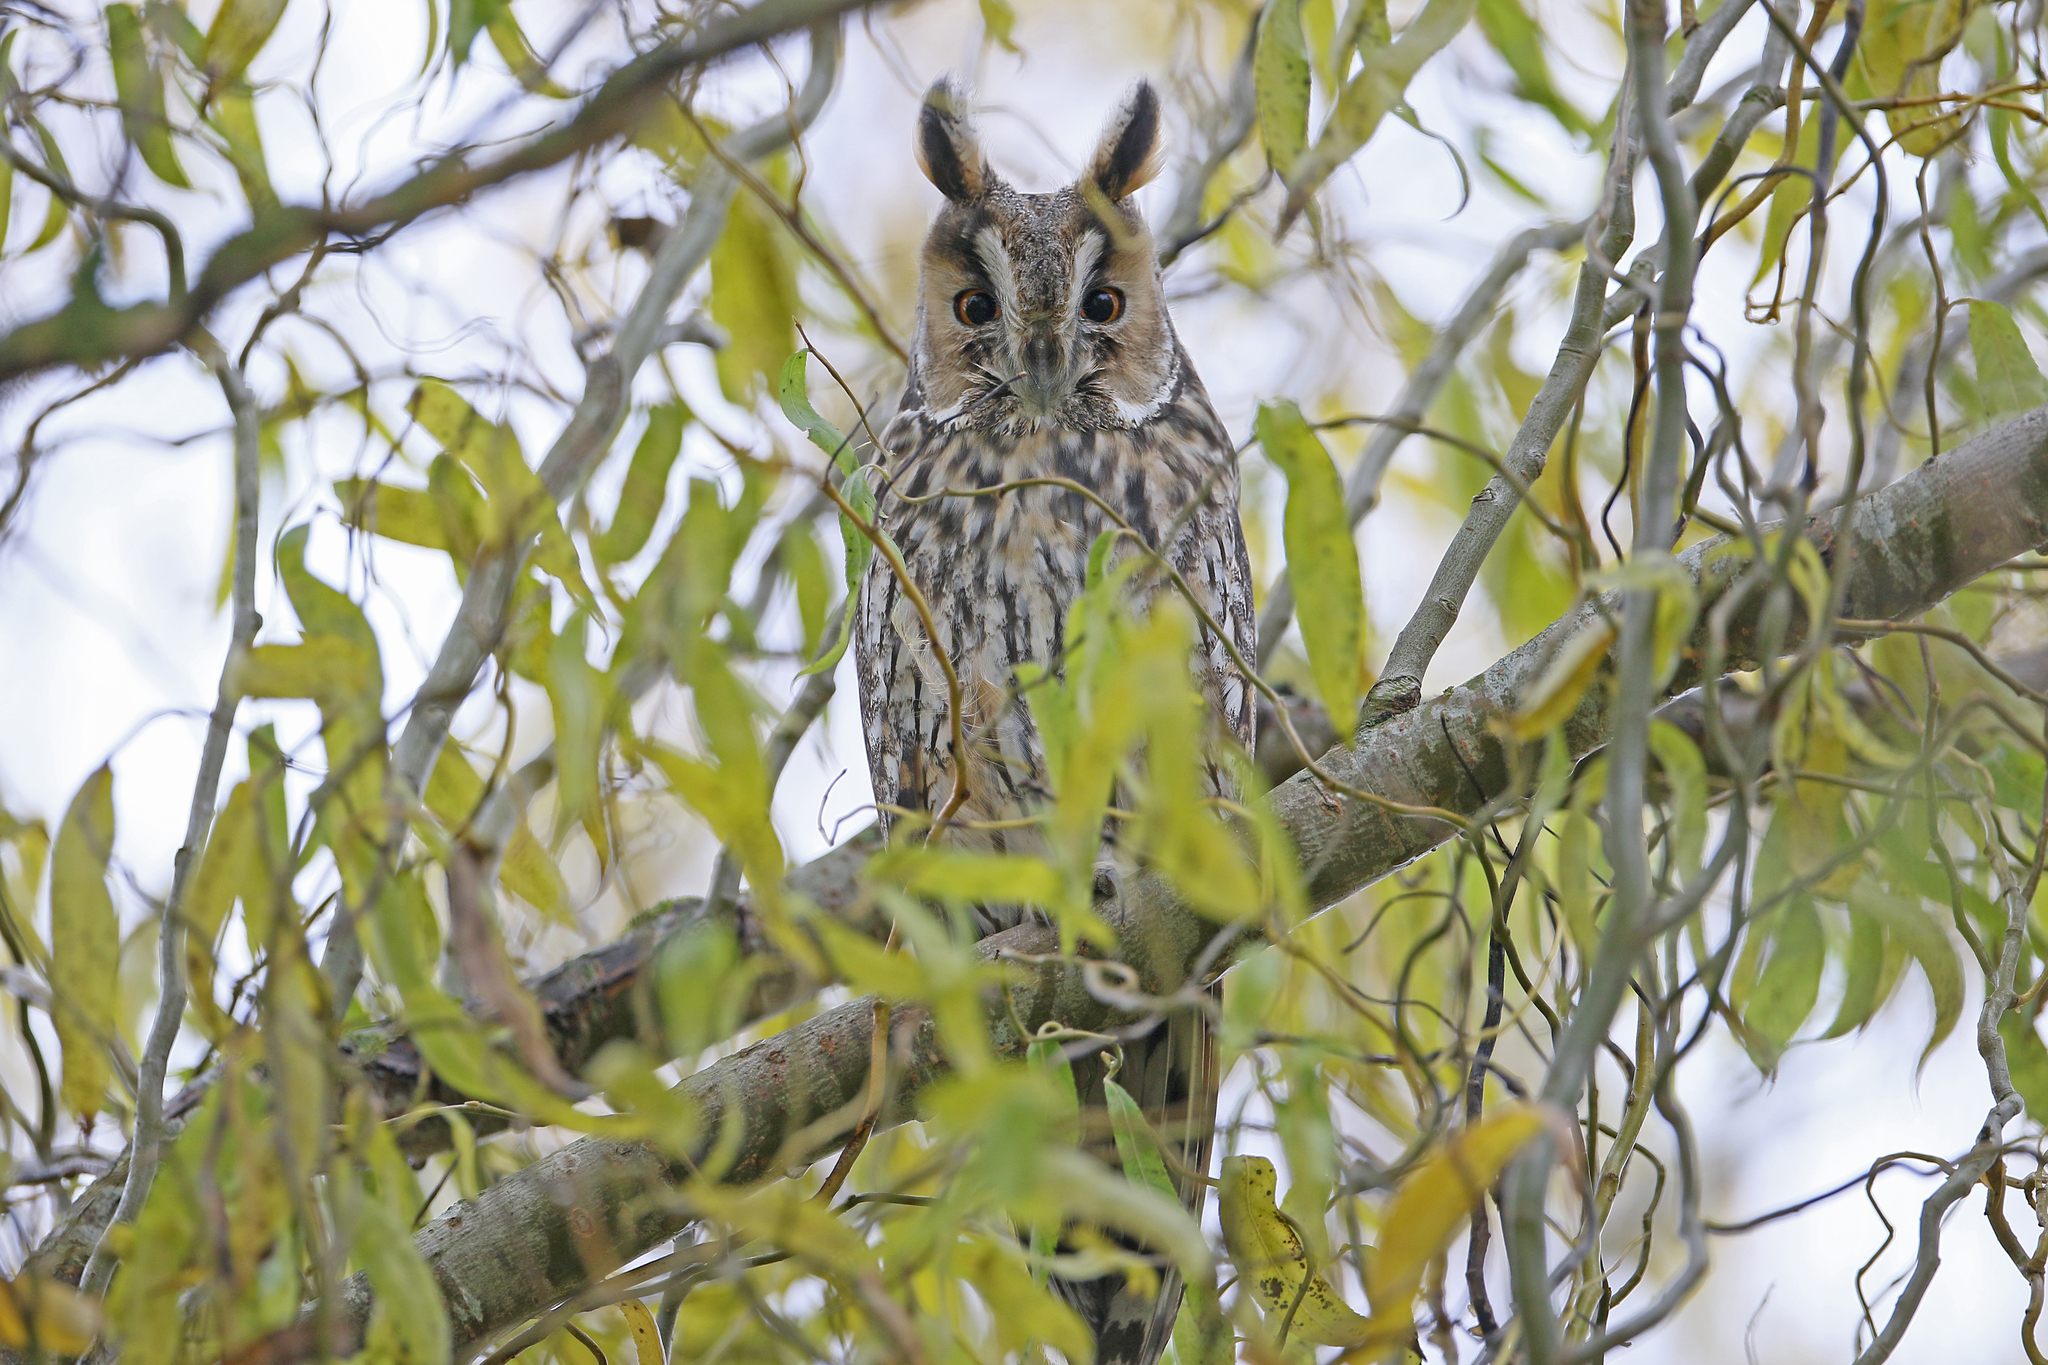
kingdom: Animalia
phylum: Chordata
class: Aves
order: Strigiformes
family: Strigidae
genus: Asio
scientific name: Asio otus
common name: Long-eared owl
